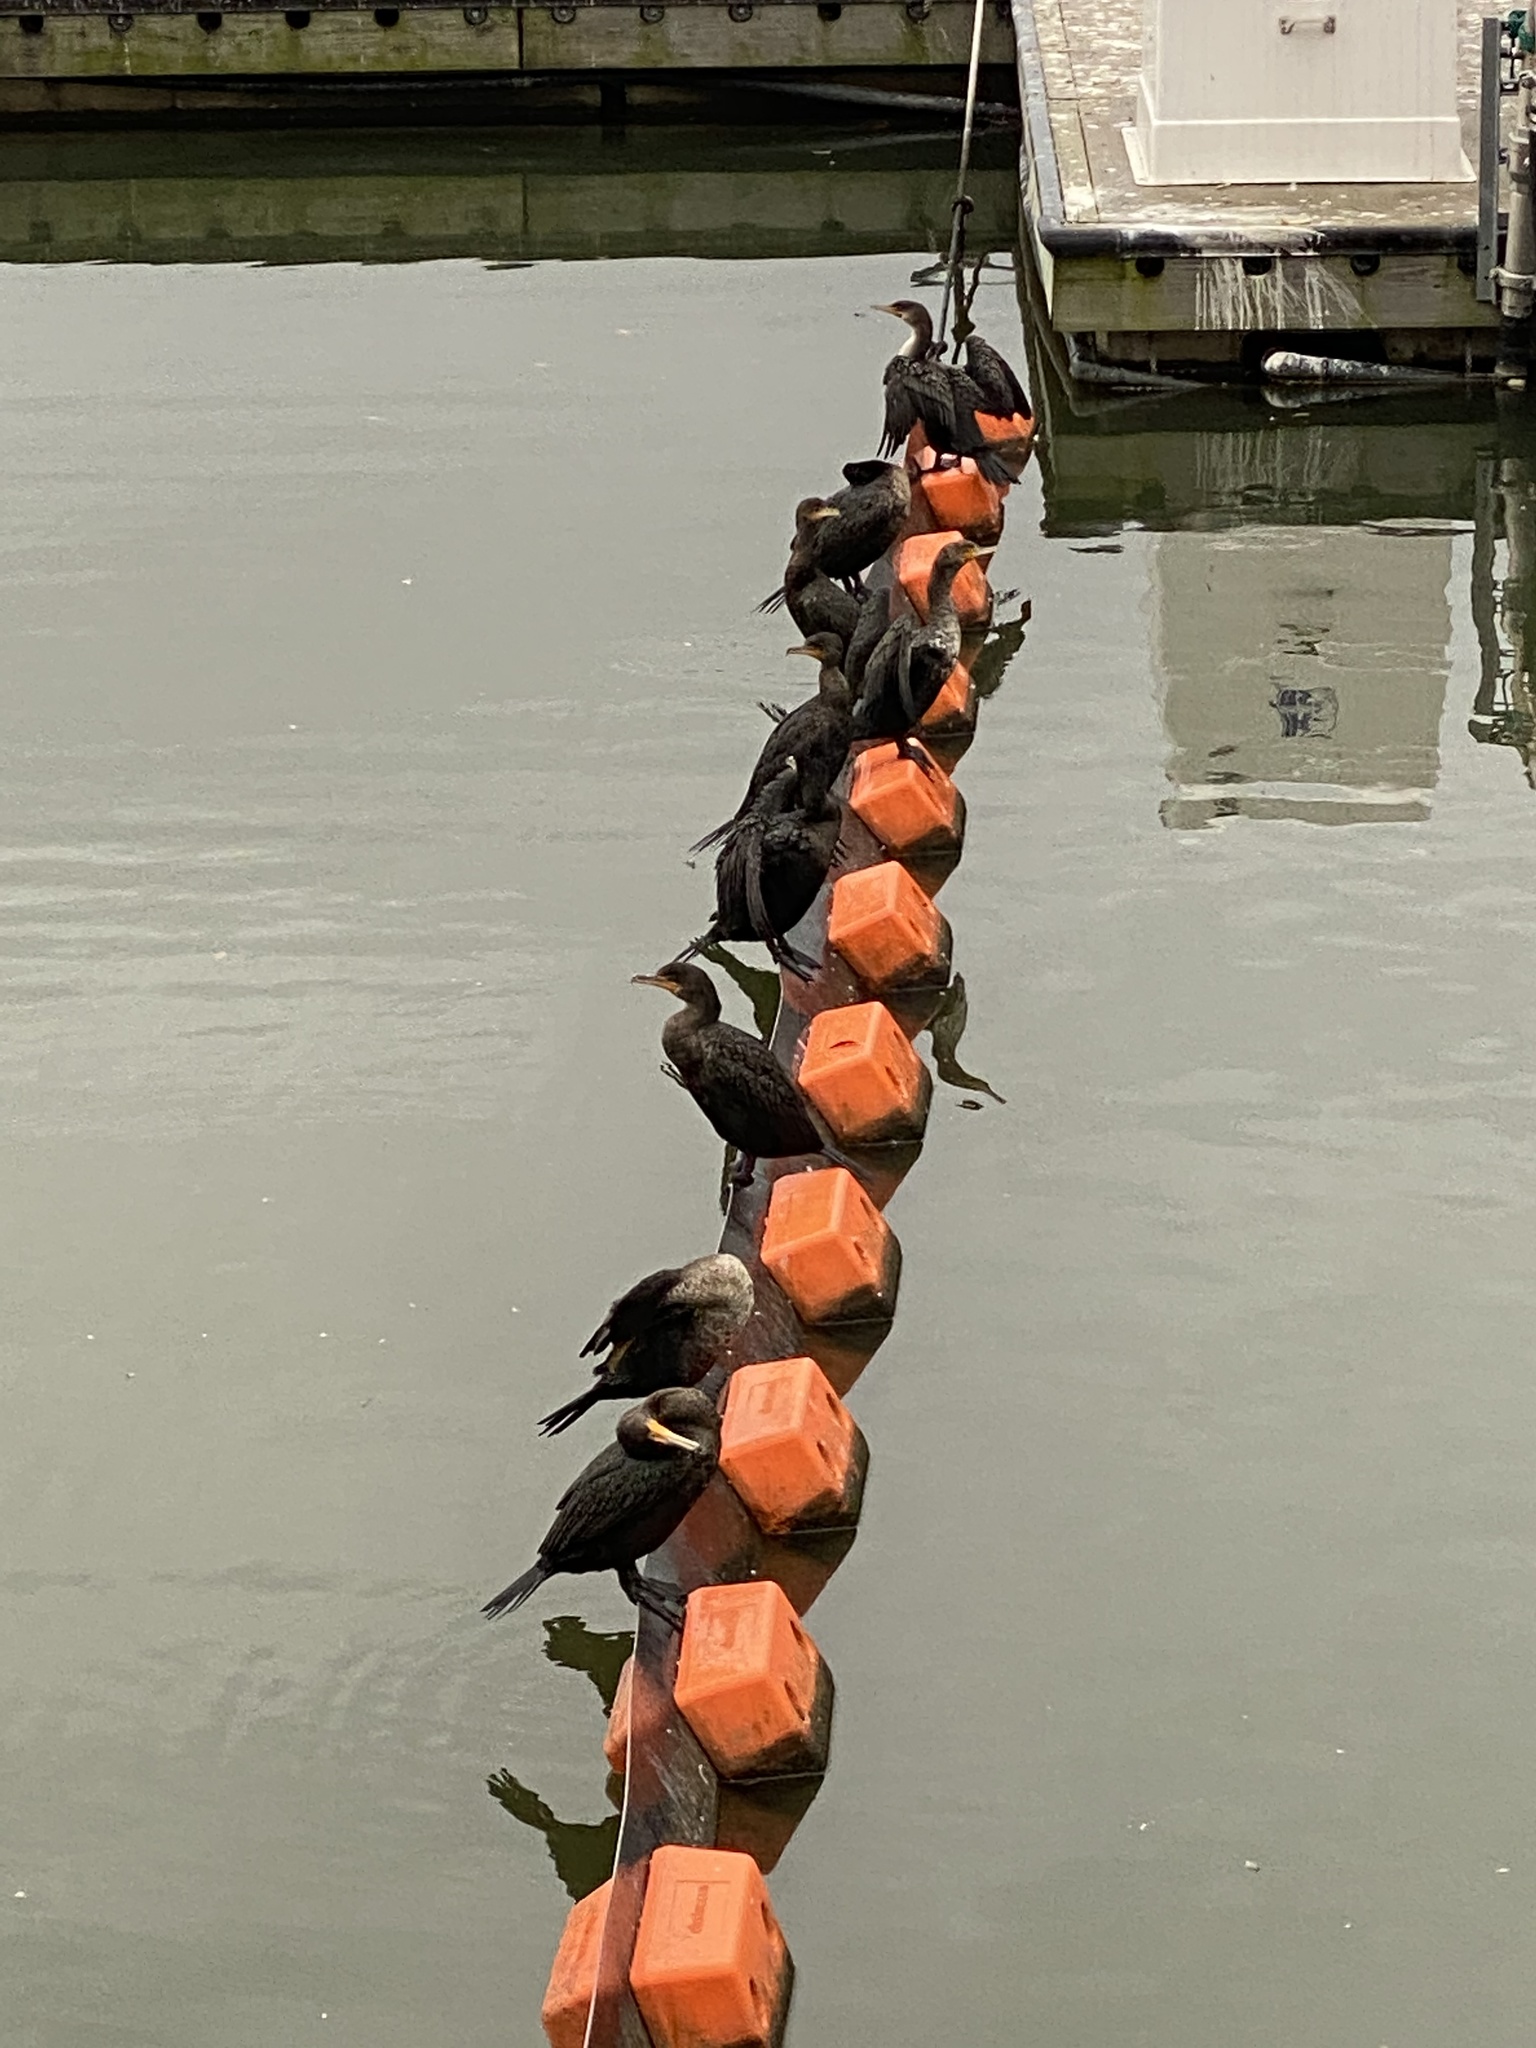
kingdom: Animalia
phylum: Chordata
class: Aves
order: Suliformes
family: Phalacrocoracidae
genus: Phalacrocorax
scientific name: Phalacrocorax auritus
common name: Double-crested cormorant
